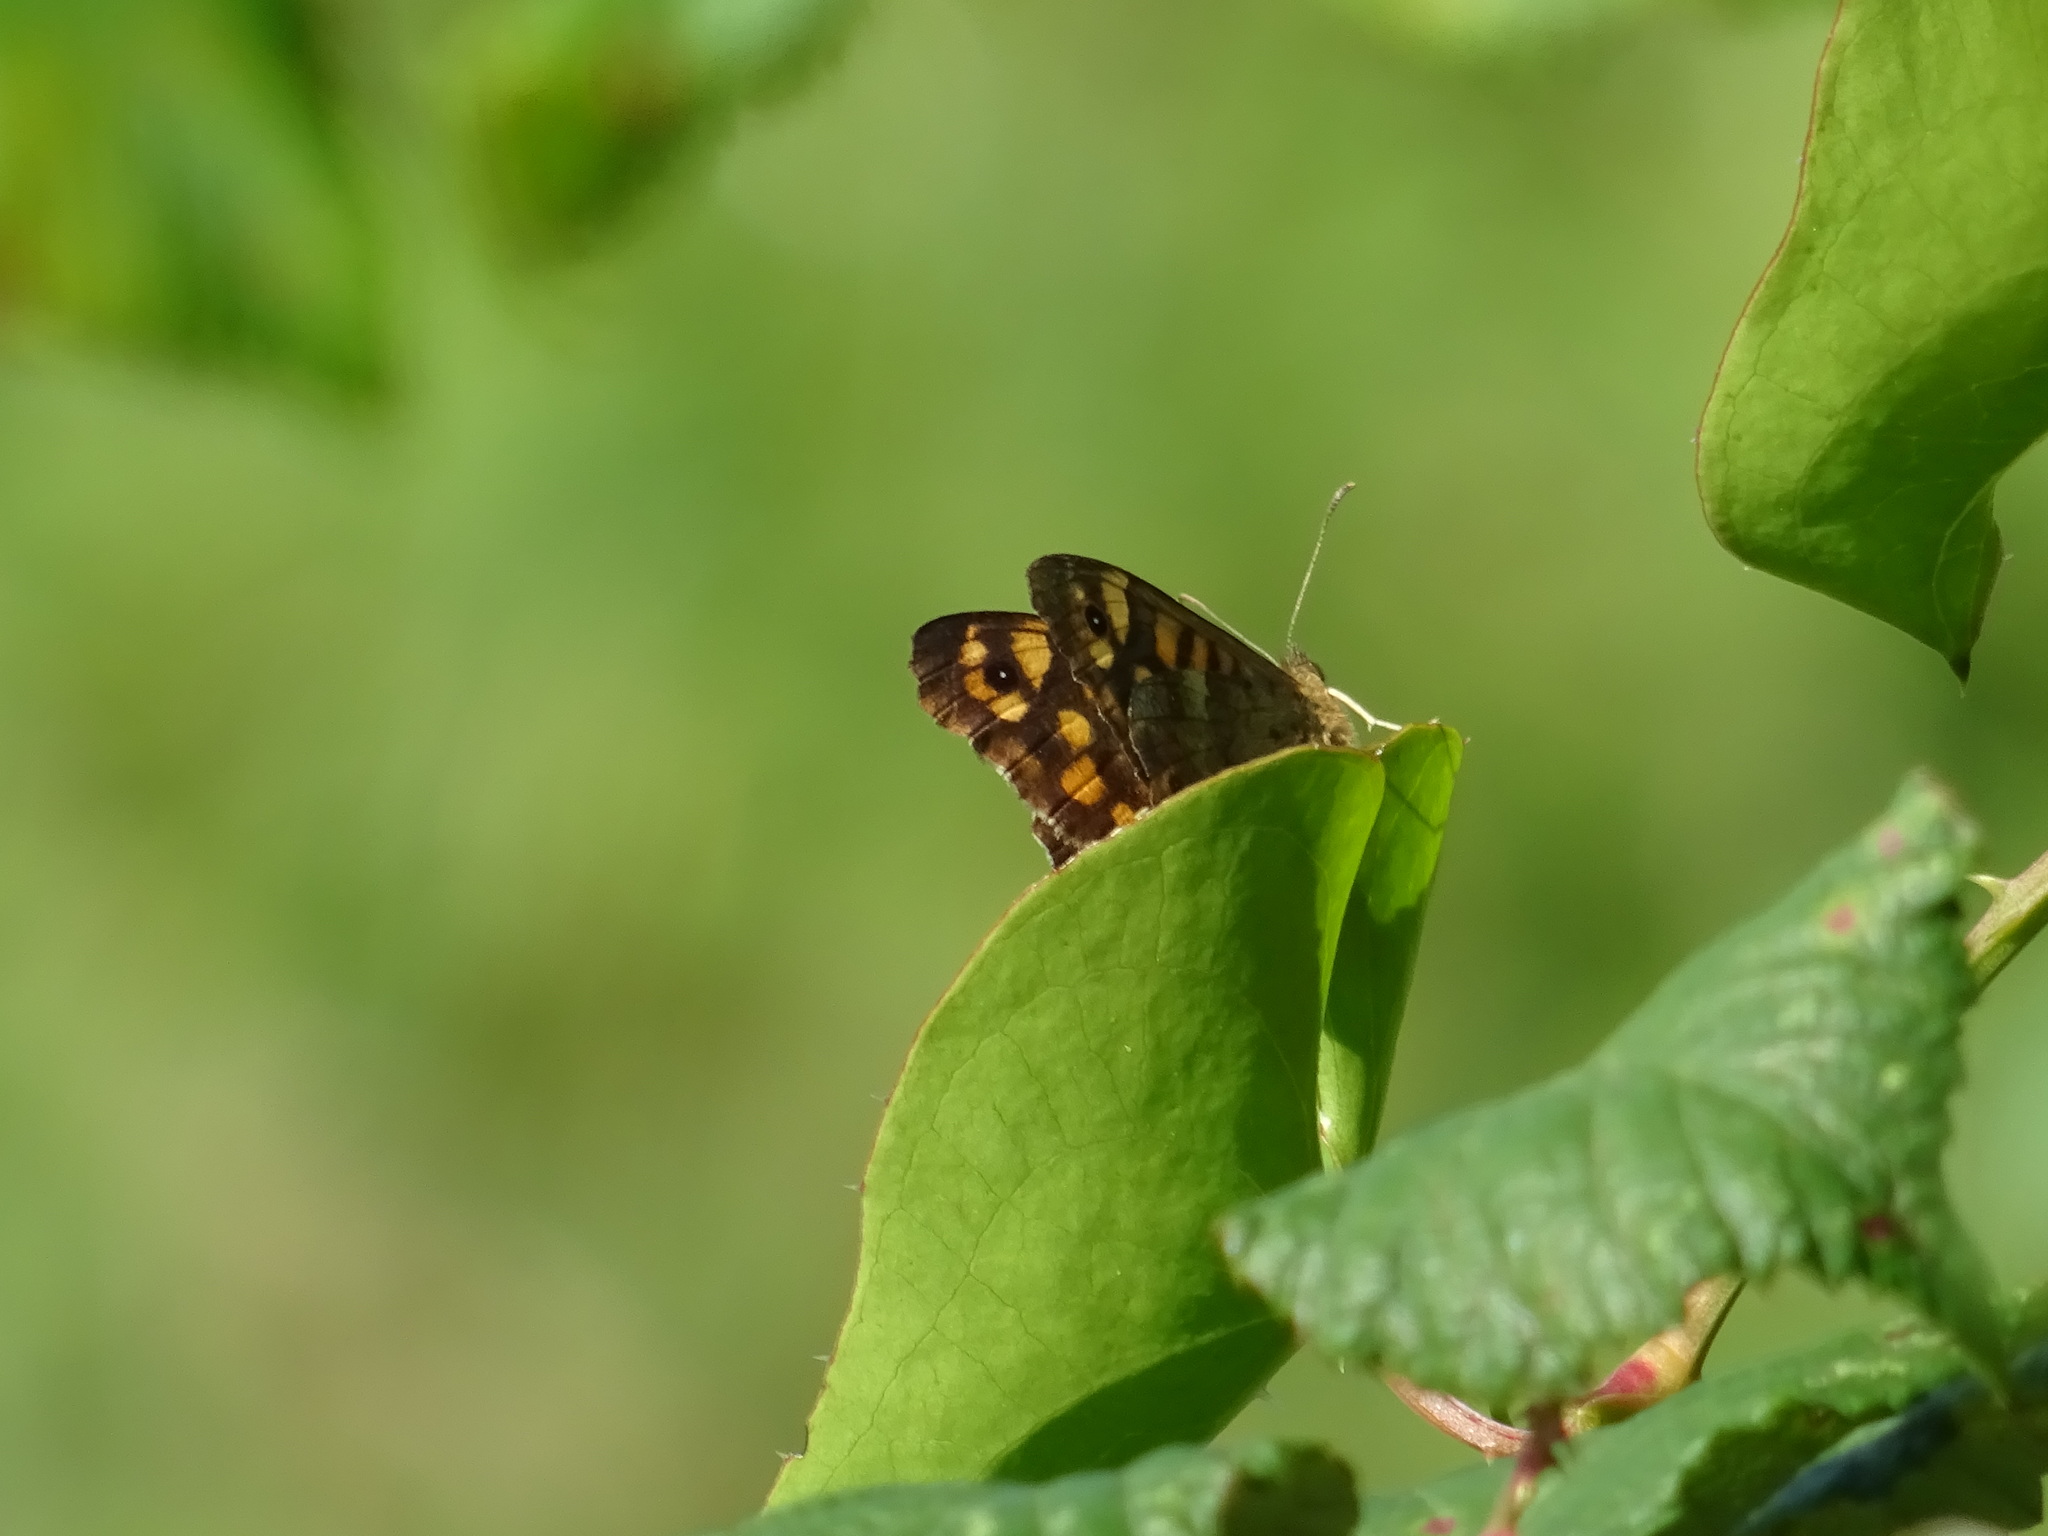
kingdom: Animalia
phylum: Arthropoda
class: Insecta
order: Lepidoptera
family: Nymphalidae
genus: Pararge
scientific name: Pararge aegeria
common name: Speckled wood
